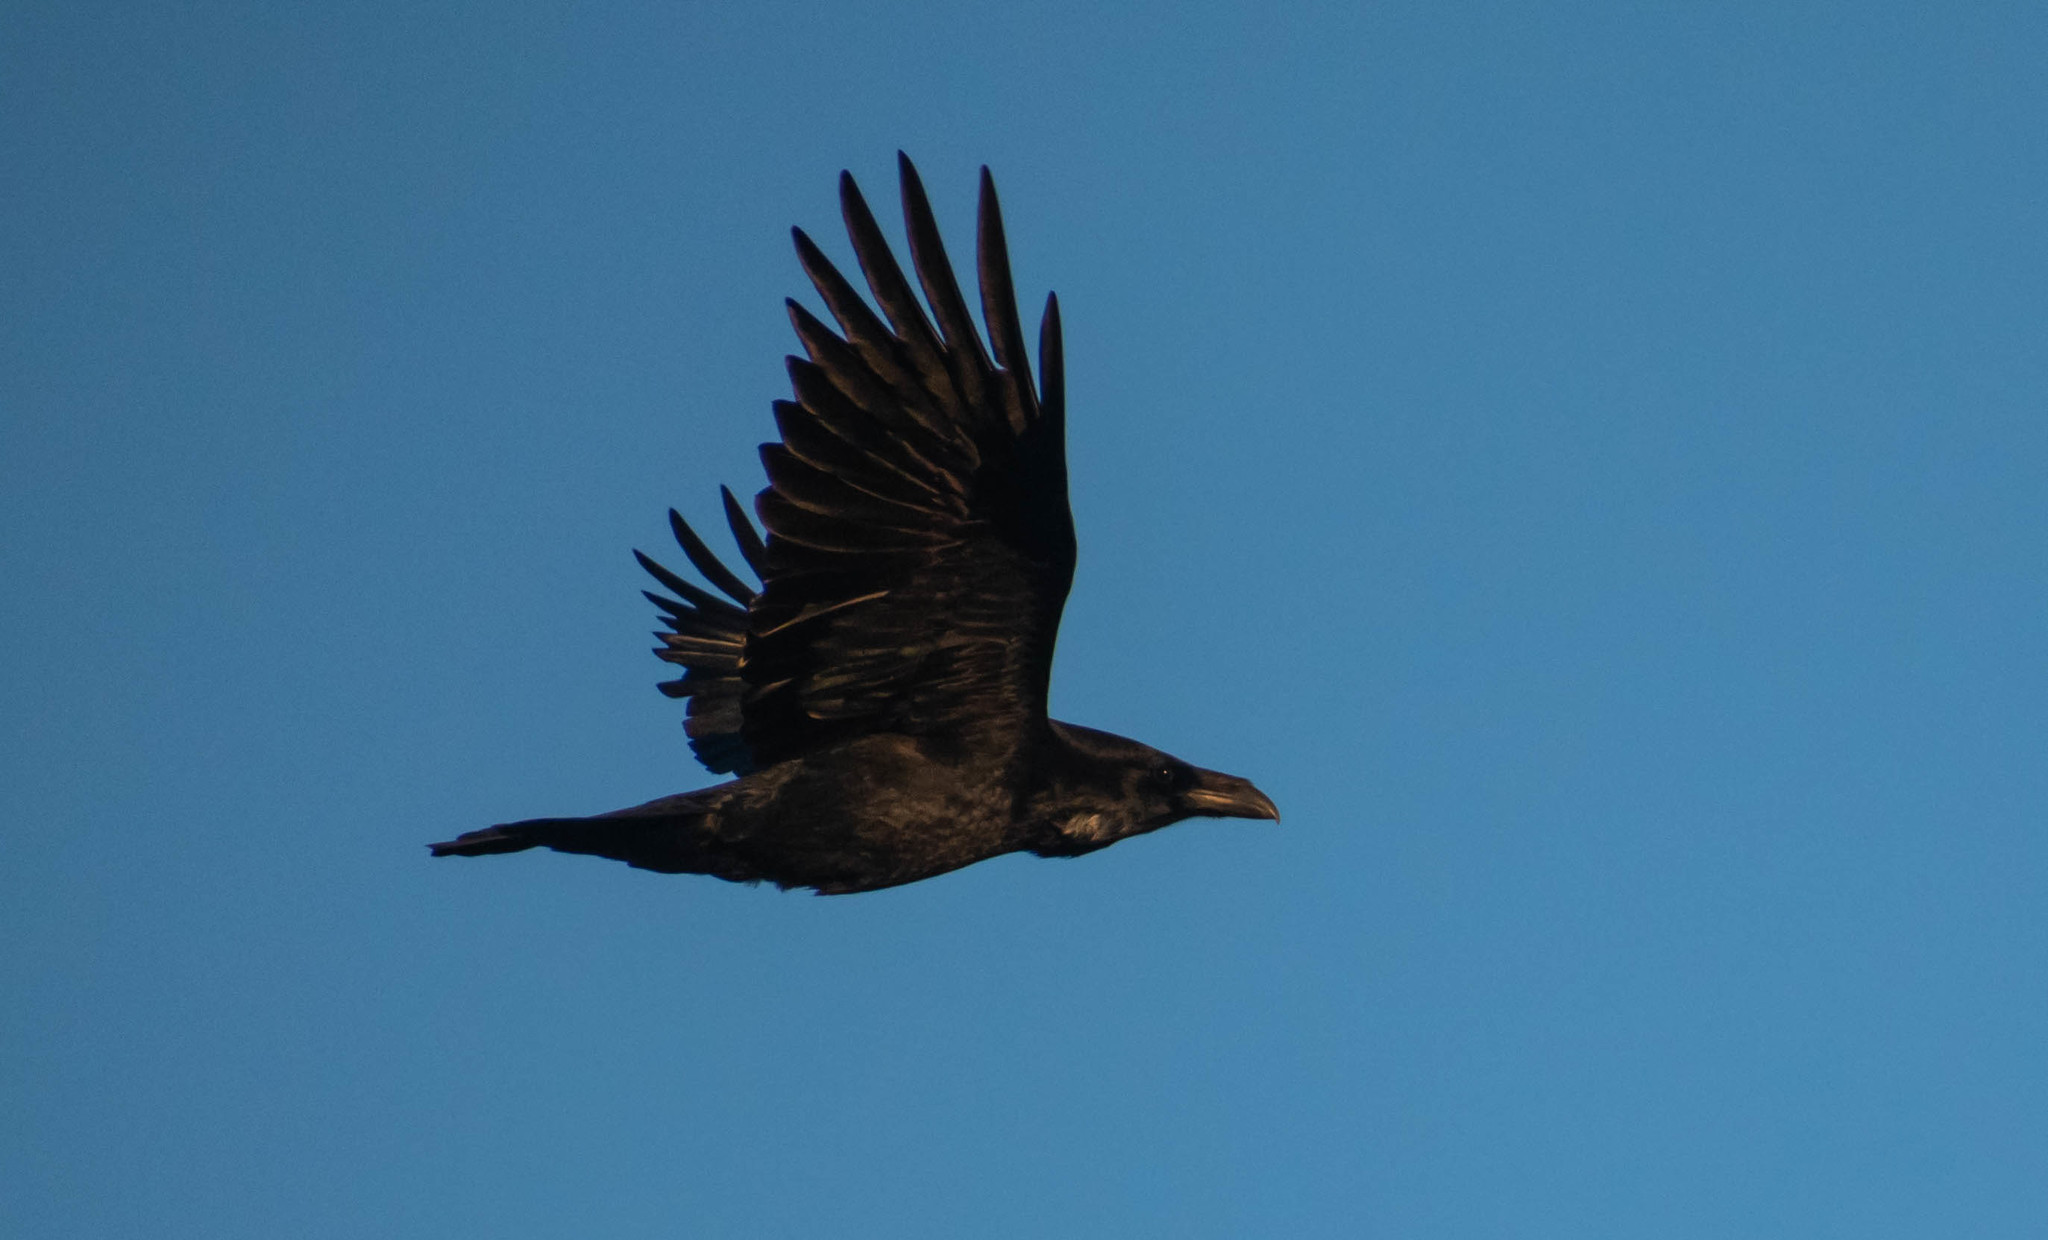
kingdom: Animalia
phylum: Chordata
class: Aves
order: Passeriformes
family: Corvidae
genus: Corvus
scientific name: Corvus corax
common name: Common raven
